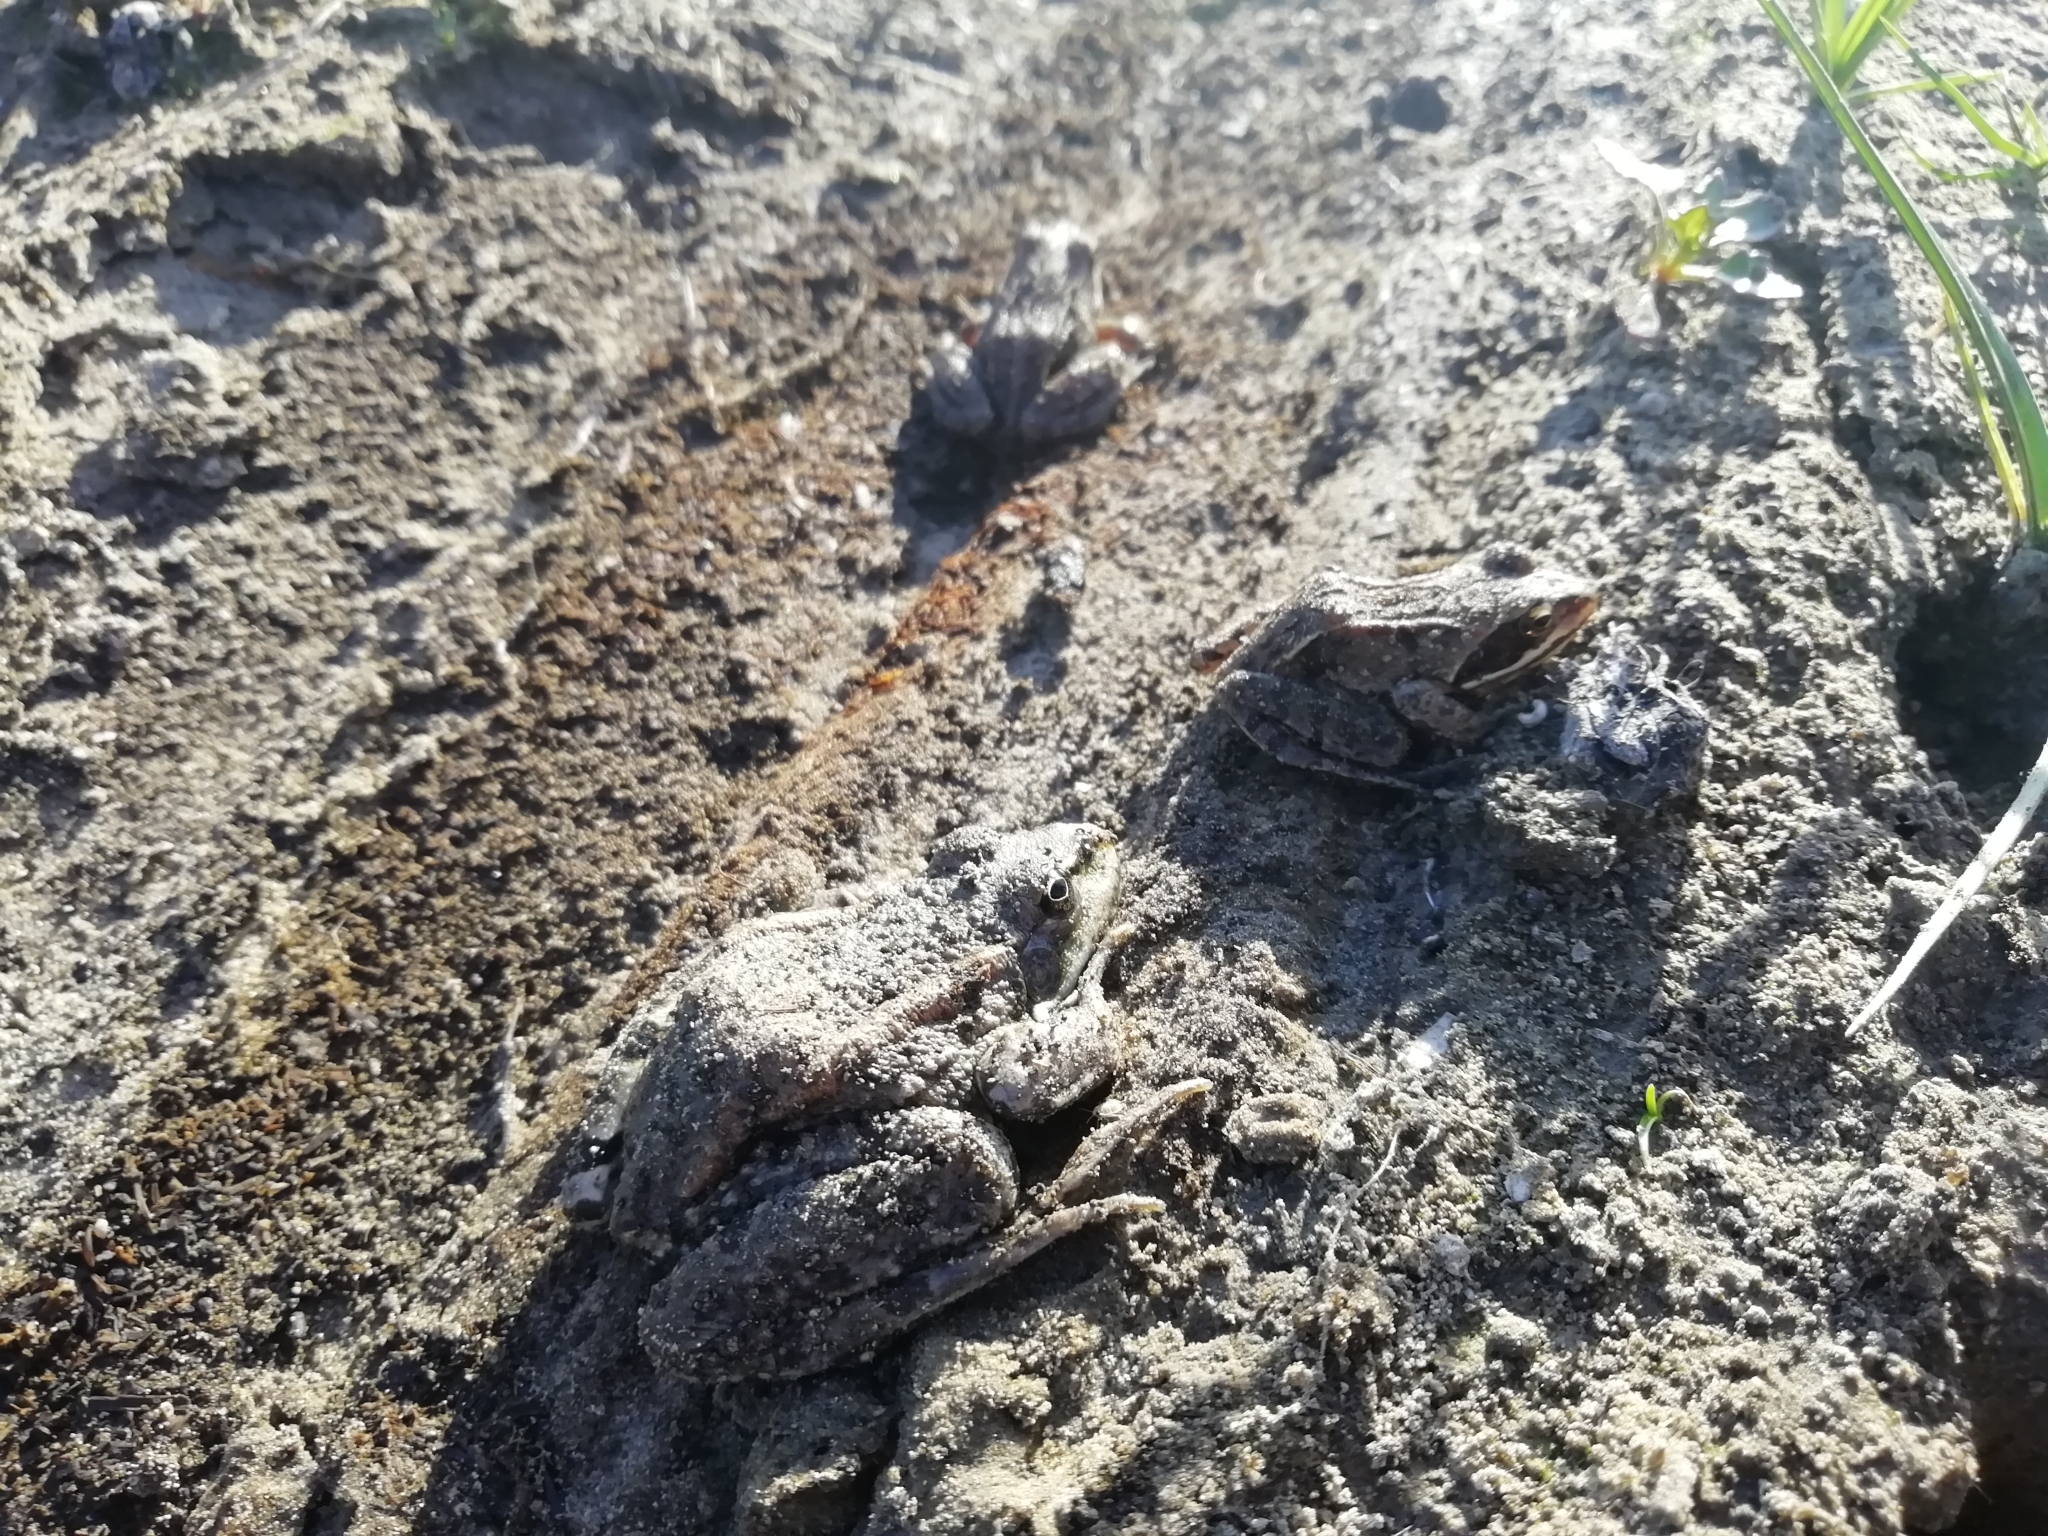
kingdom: Animalia
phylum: Chordata
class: Amphibia
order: Anura
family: Ranidae
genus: Rana
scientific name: Rana arvalis
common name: Moor frog
